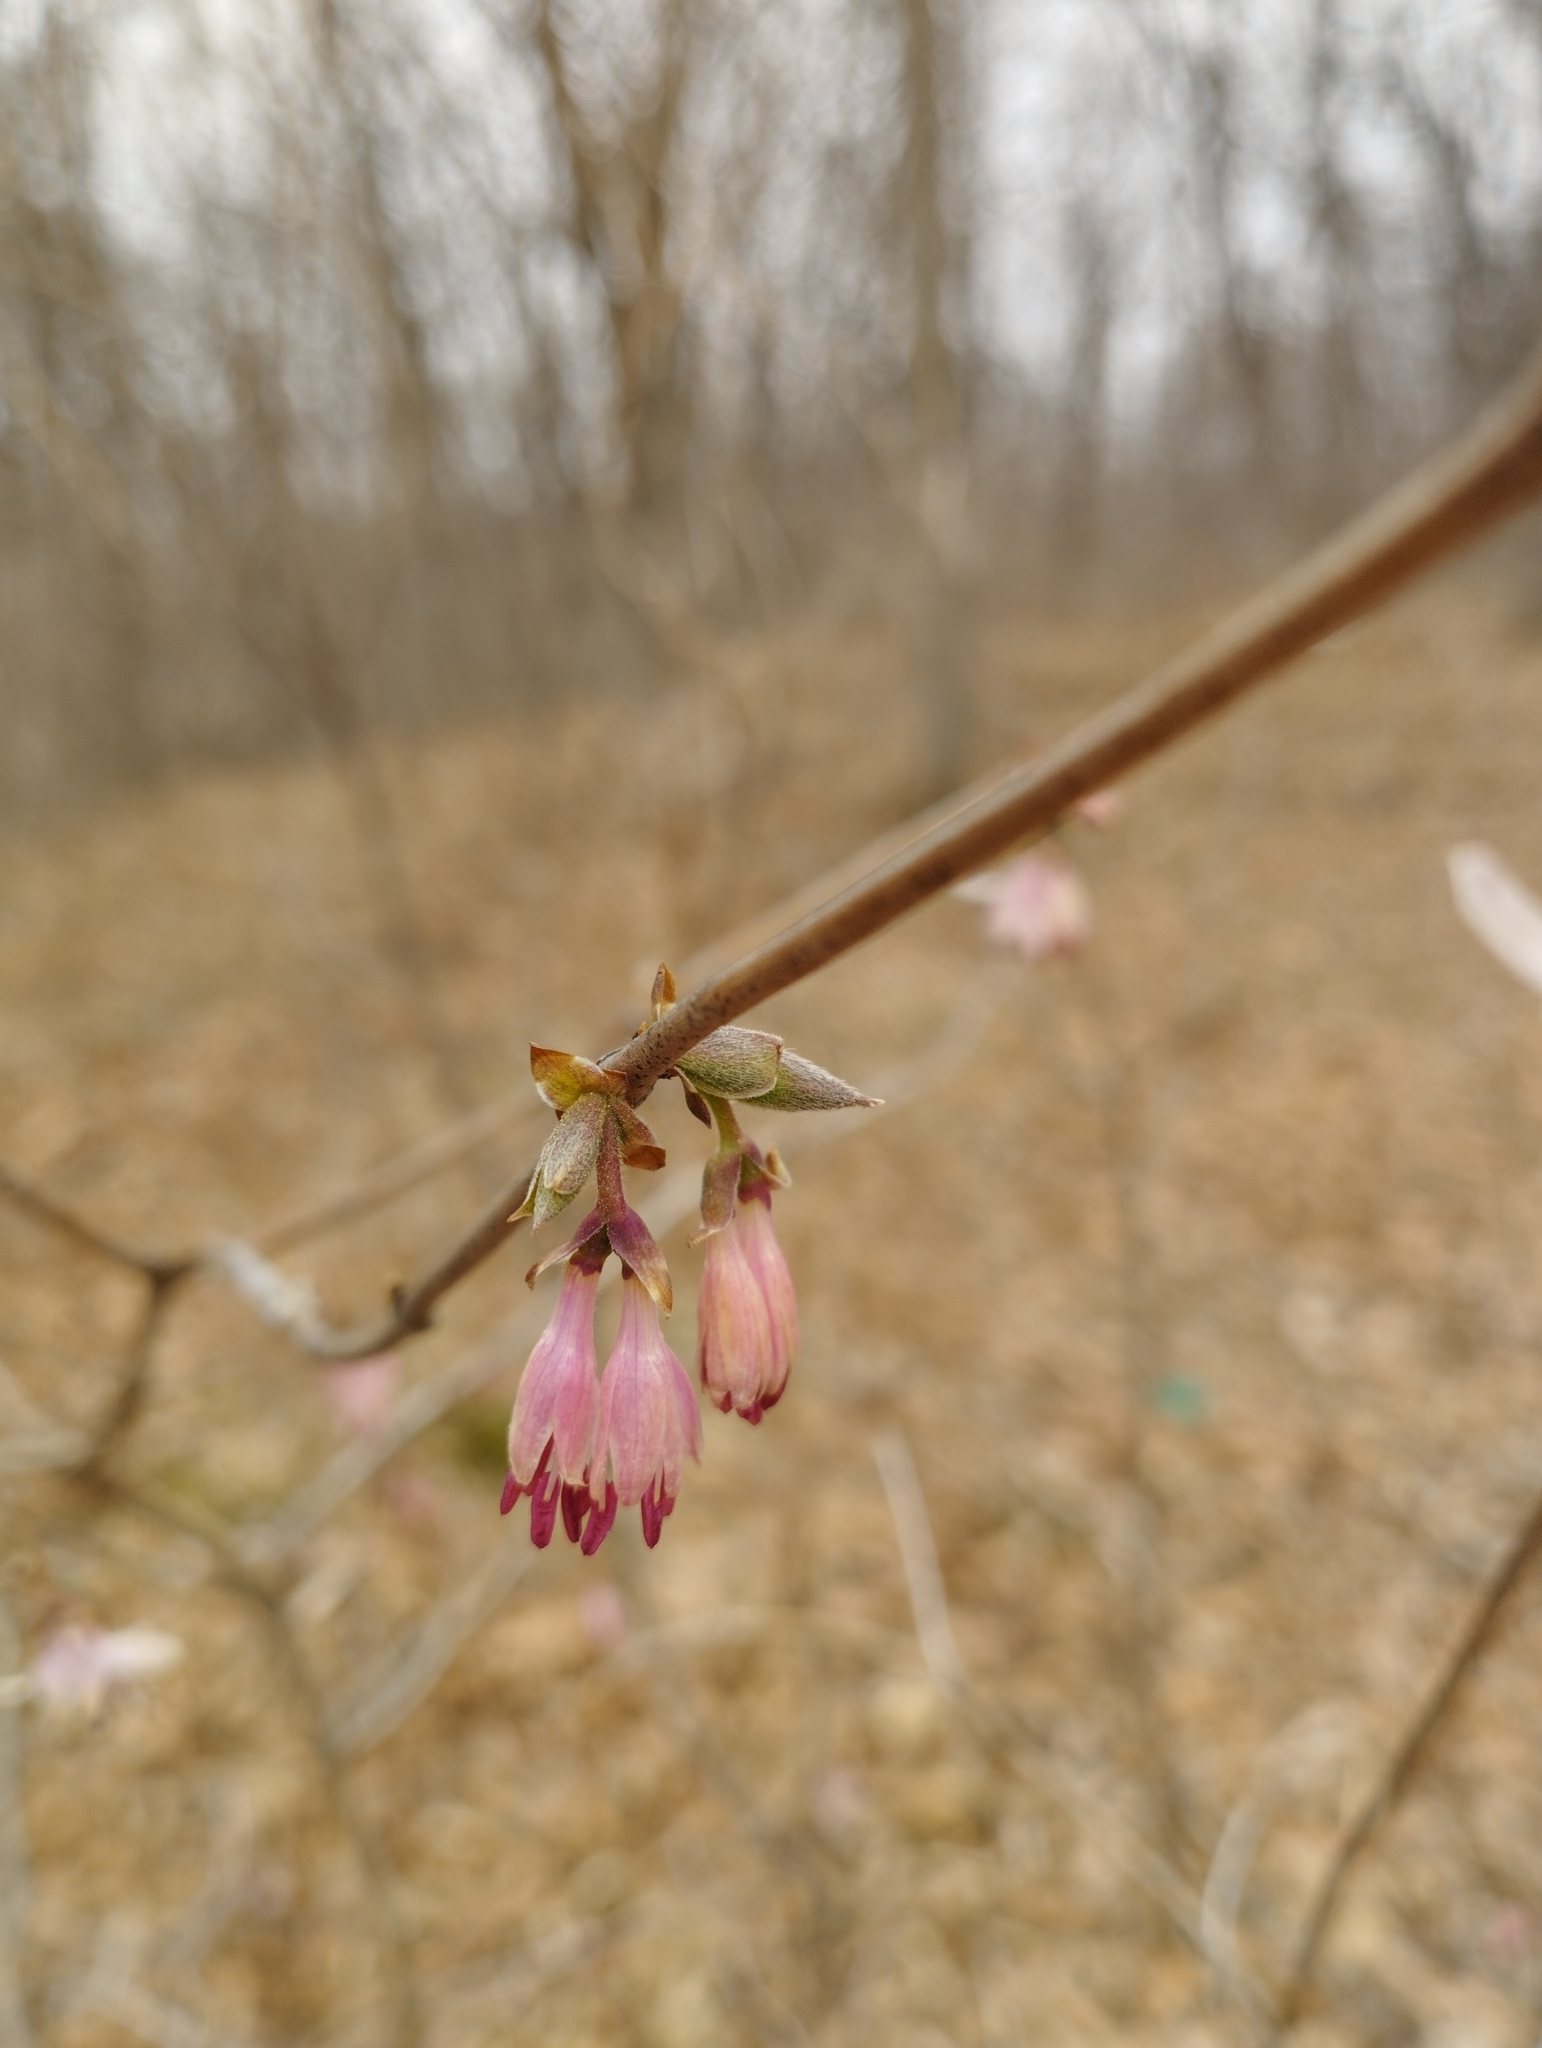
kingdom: Plantae
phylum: Tracheophyta
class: Magnoliopsida
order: Dipsacales
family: Caprifoliaceae
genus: Lonicera
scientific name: Lonicera praeflorens
